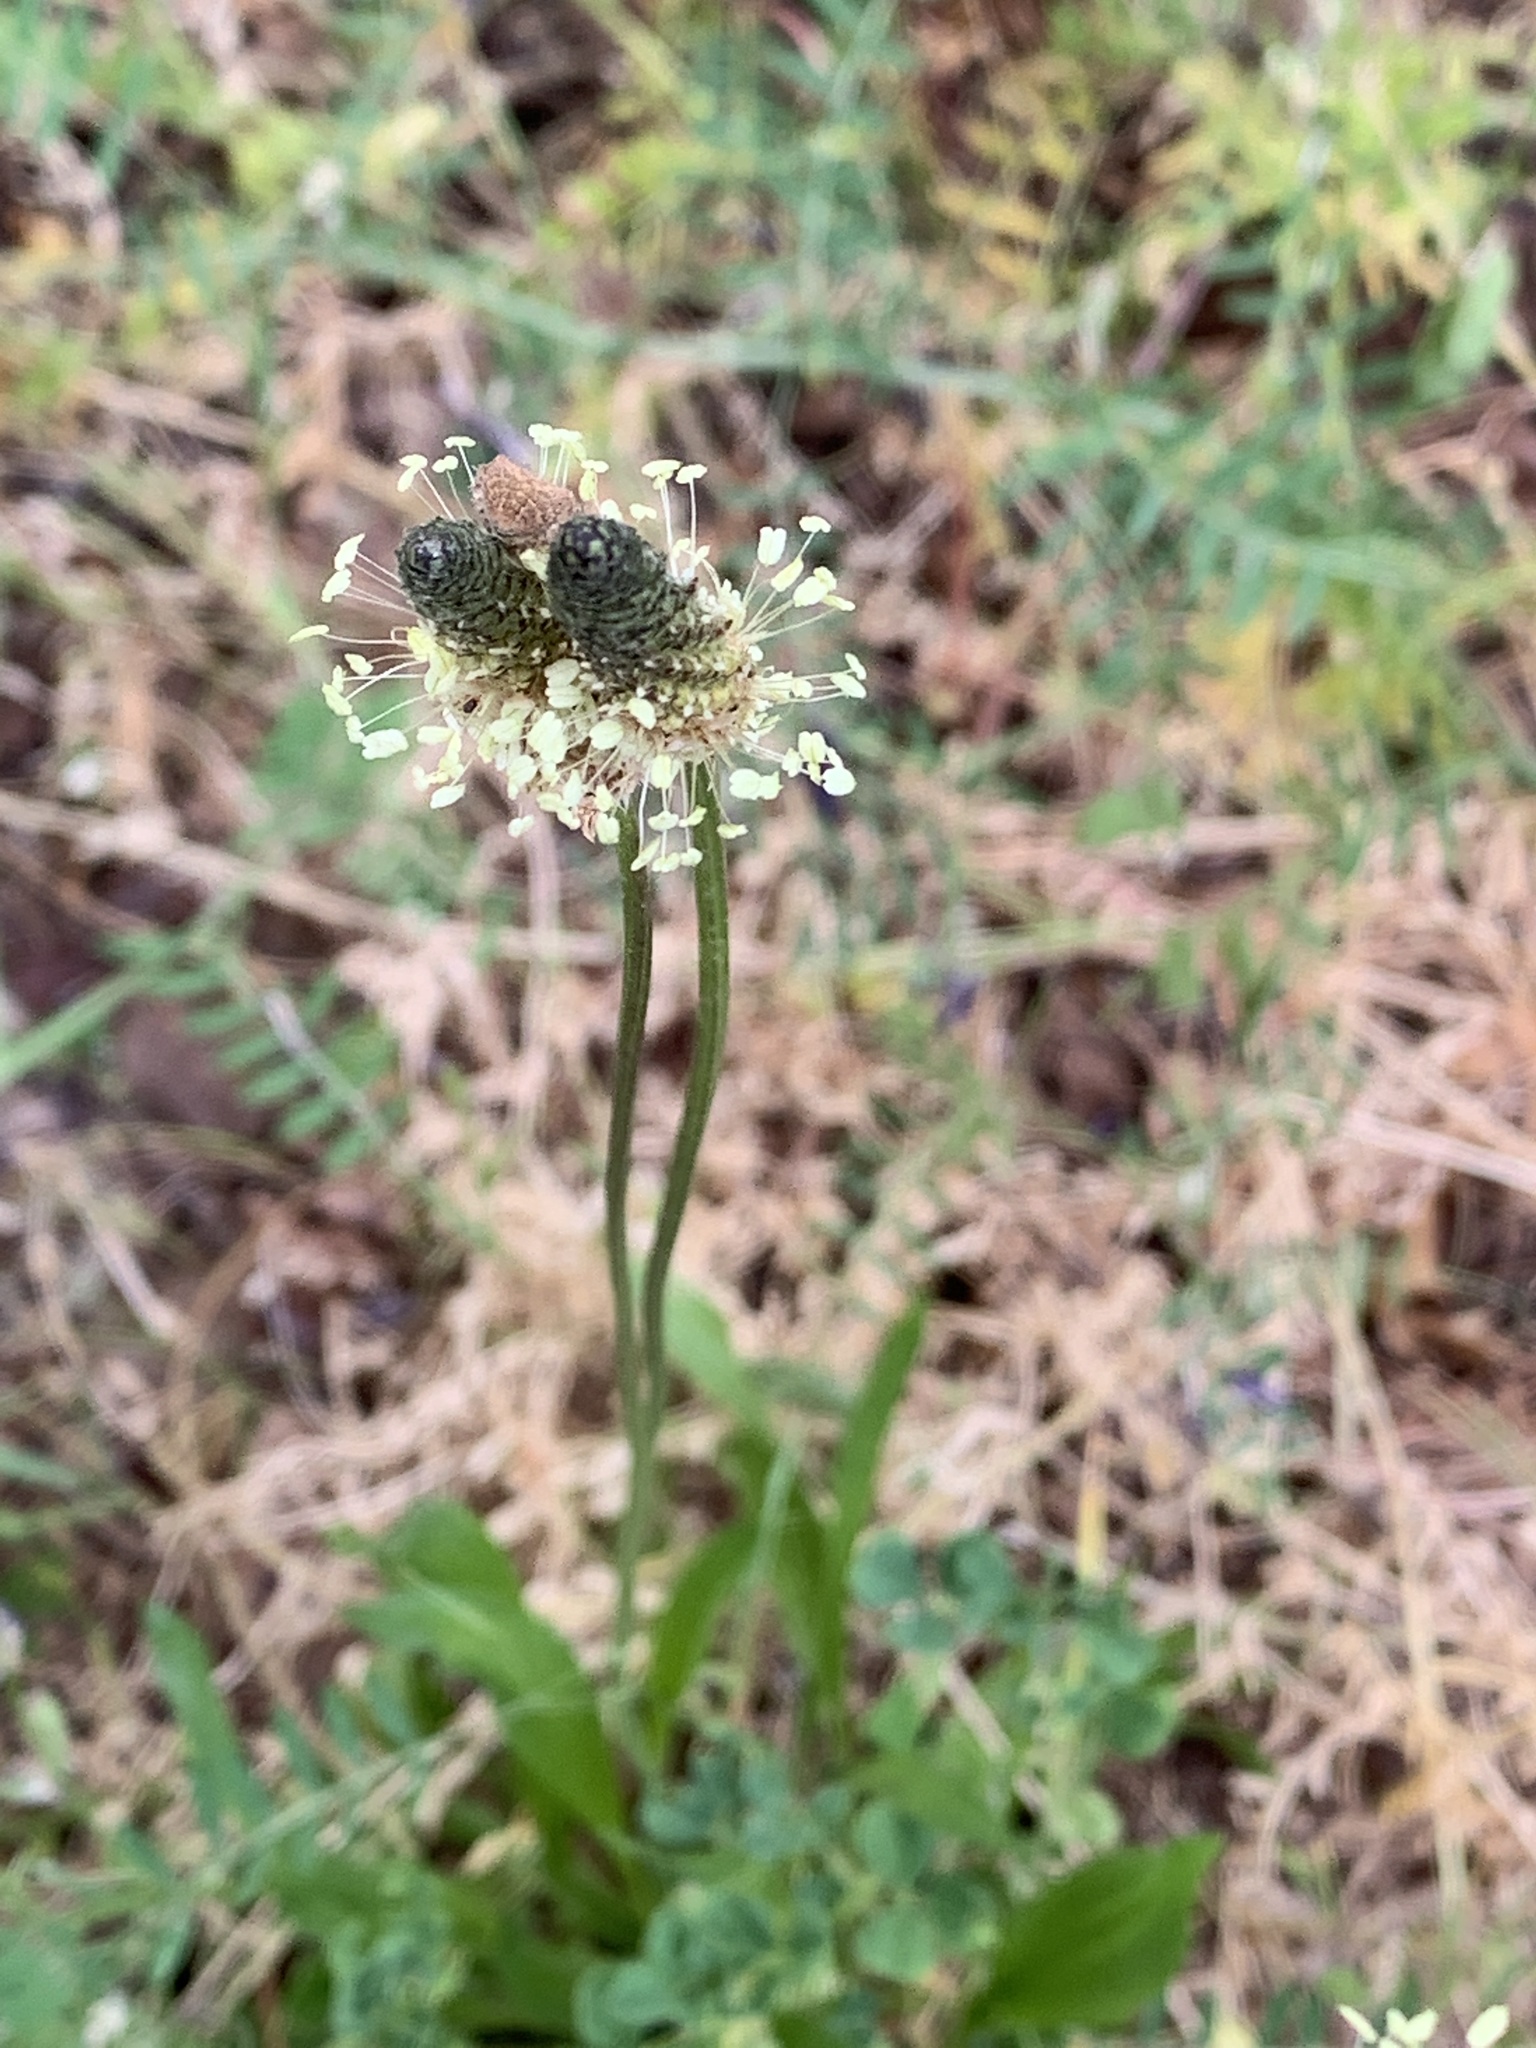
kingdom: Plantae
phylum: Tracheophyta
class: Magnoliopsida
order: Lamiales
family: Plantaginaceae
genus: Plantago
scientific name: Plantago lanceolata
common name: Ribwort plantain
